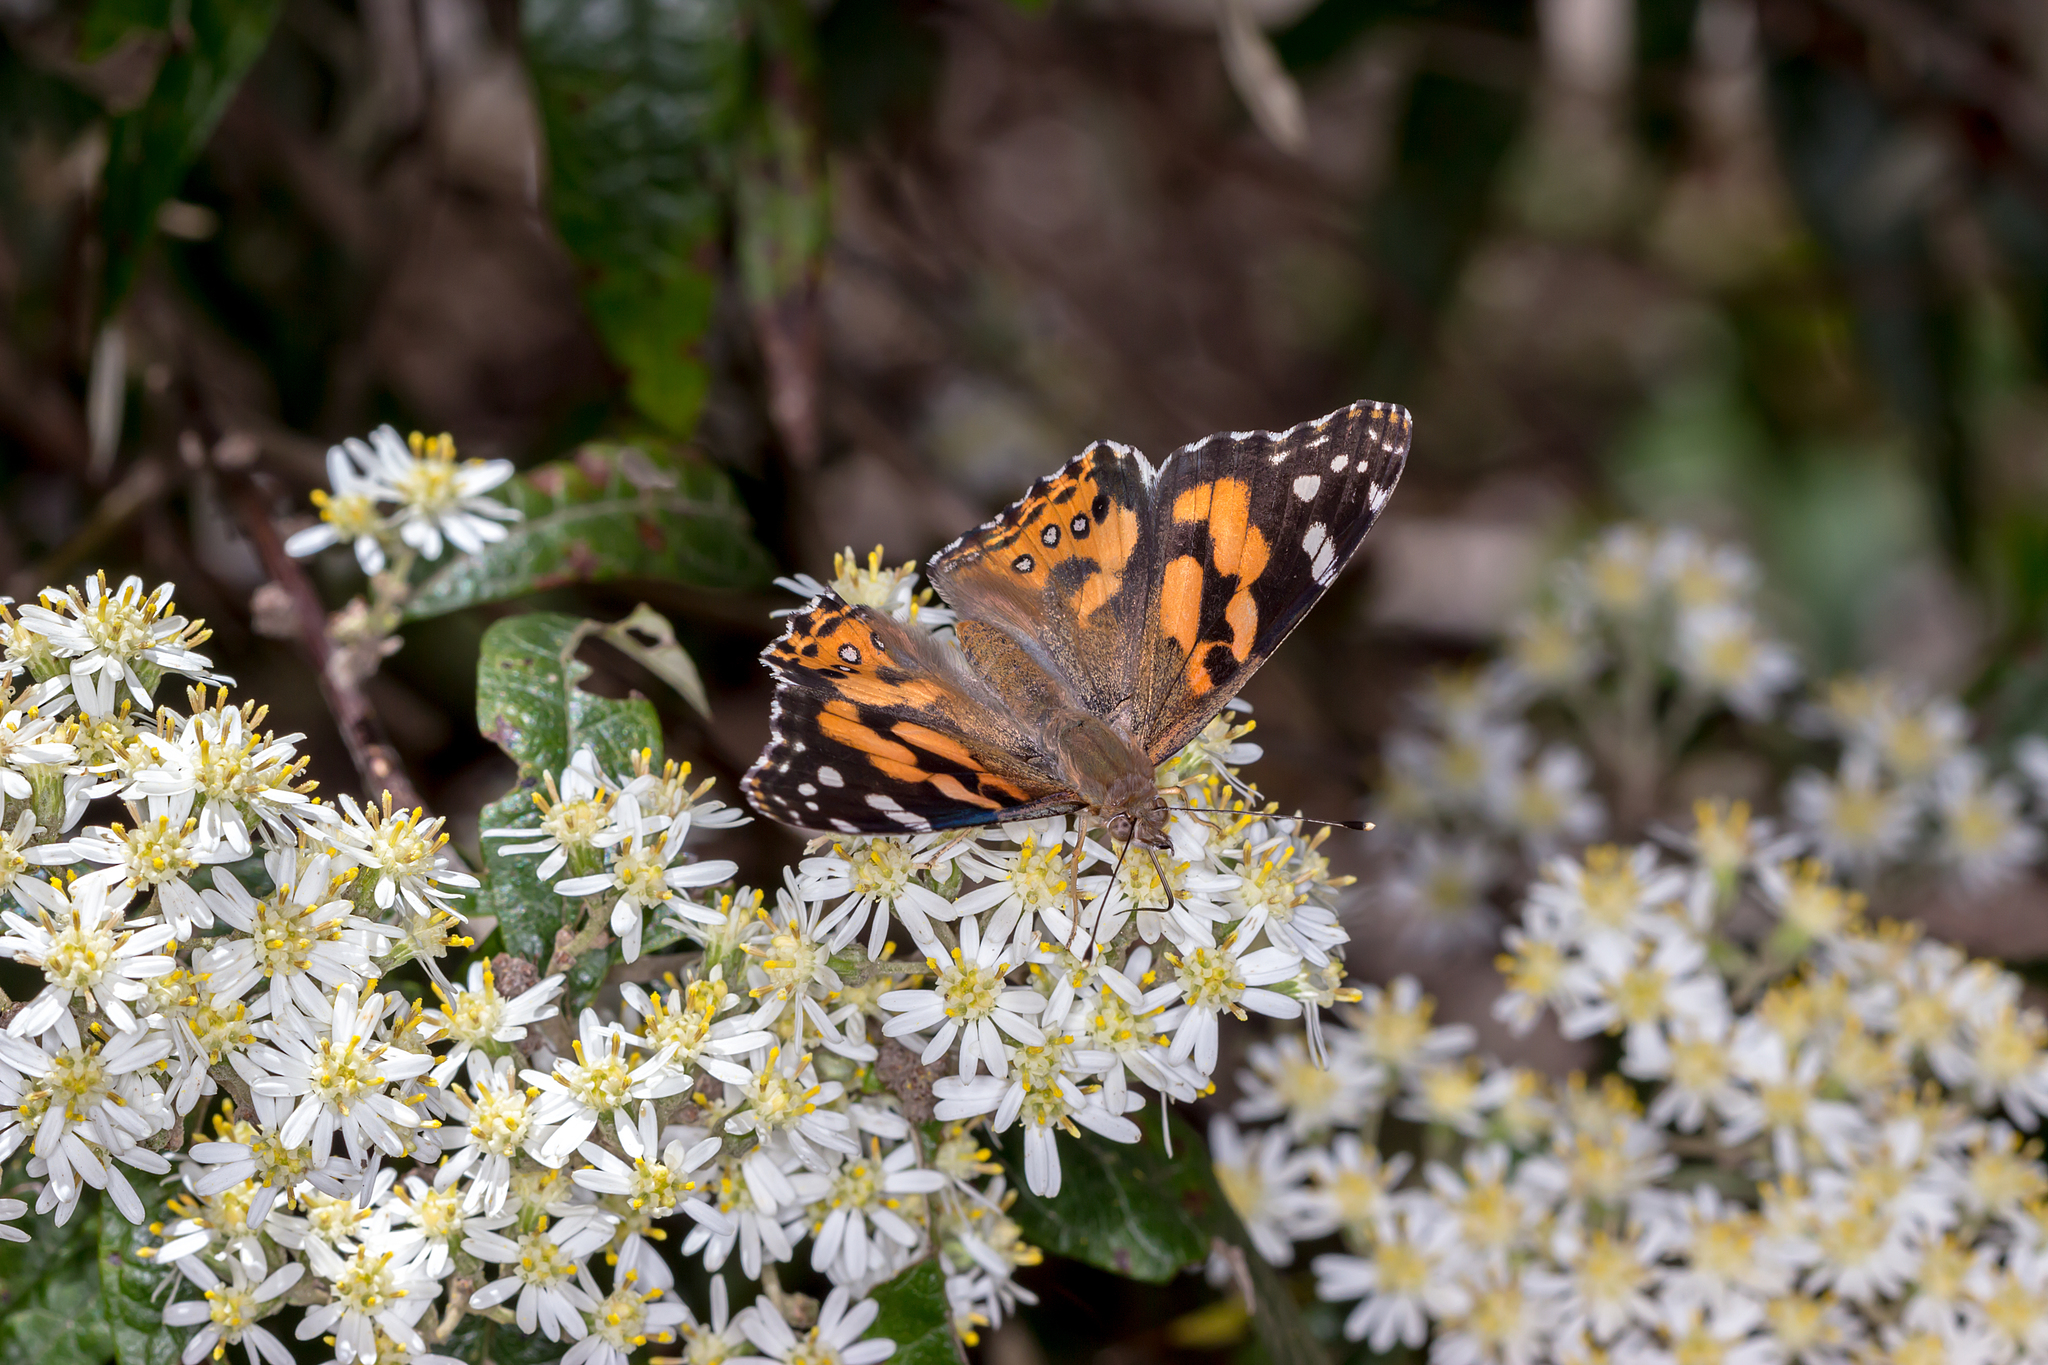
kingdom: Plantae
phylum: Tracheophyta
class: Magnoliopsida
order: Asterales
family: Asteraceae
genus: Olearia
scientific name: Olearia lirata
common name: Dusty daisybush
